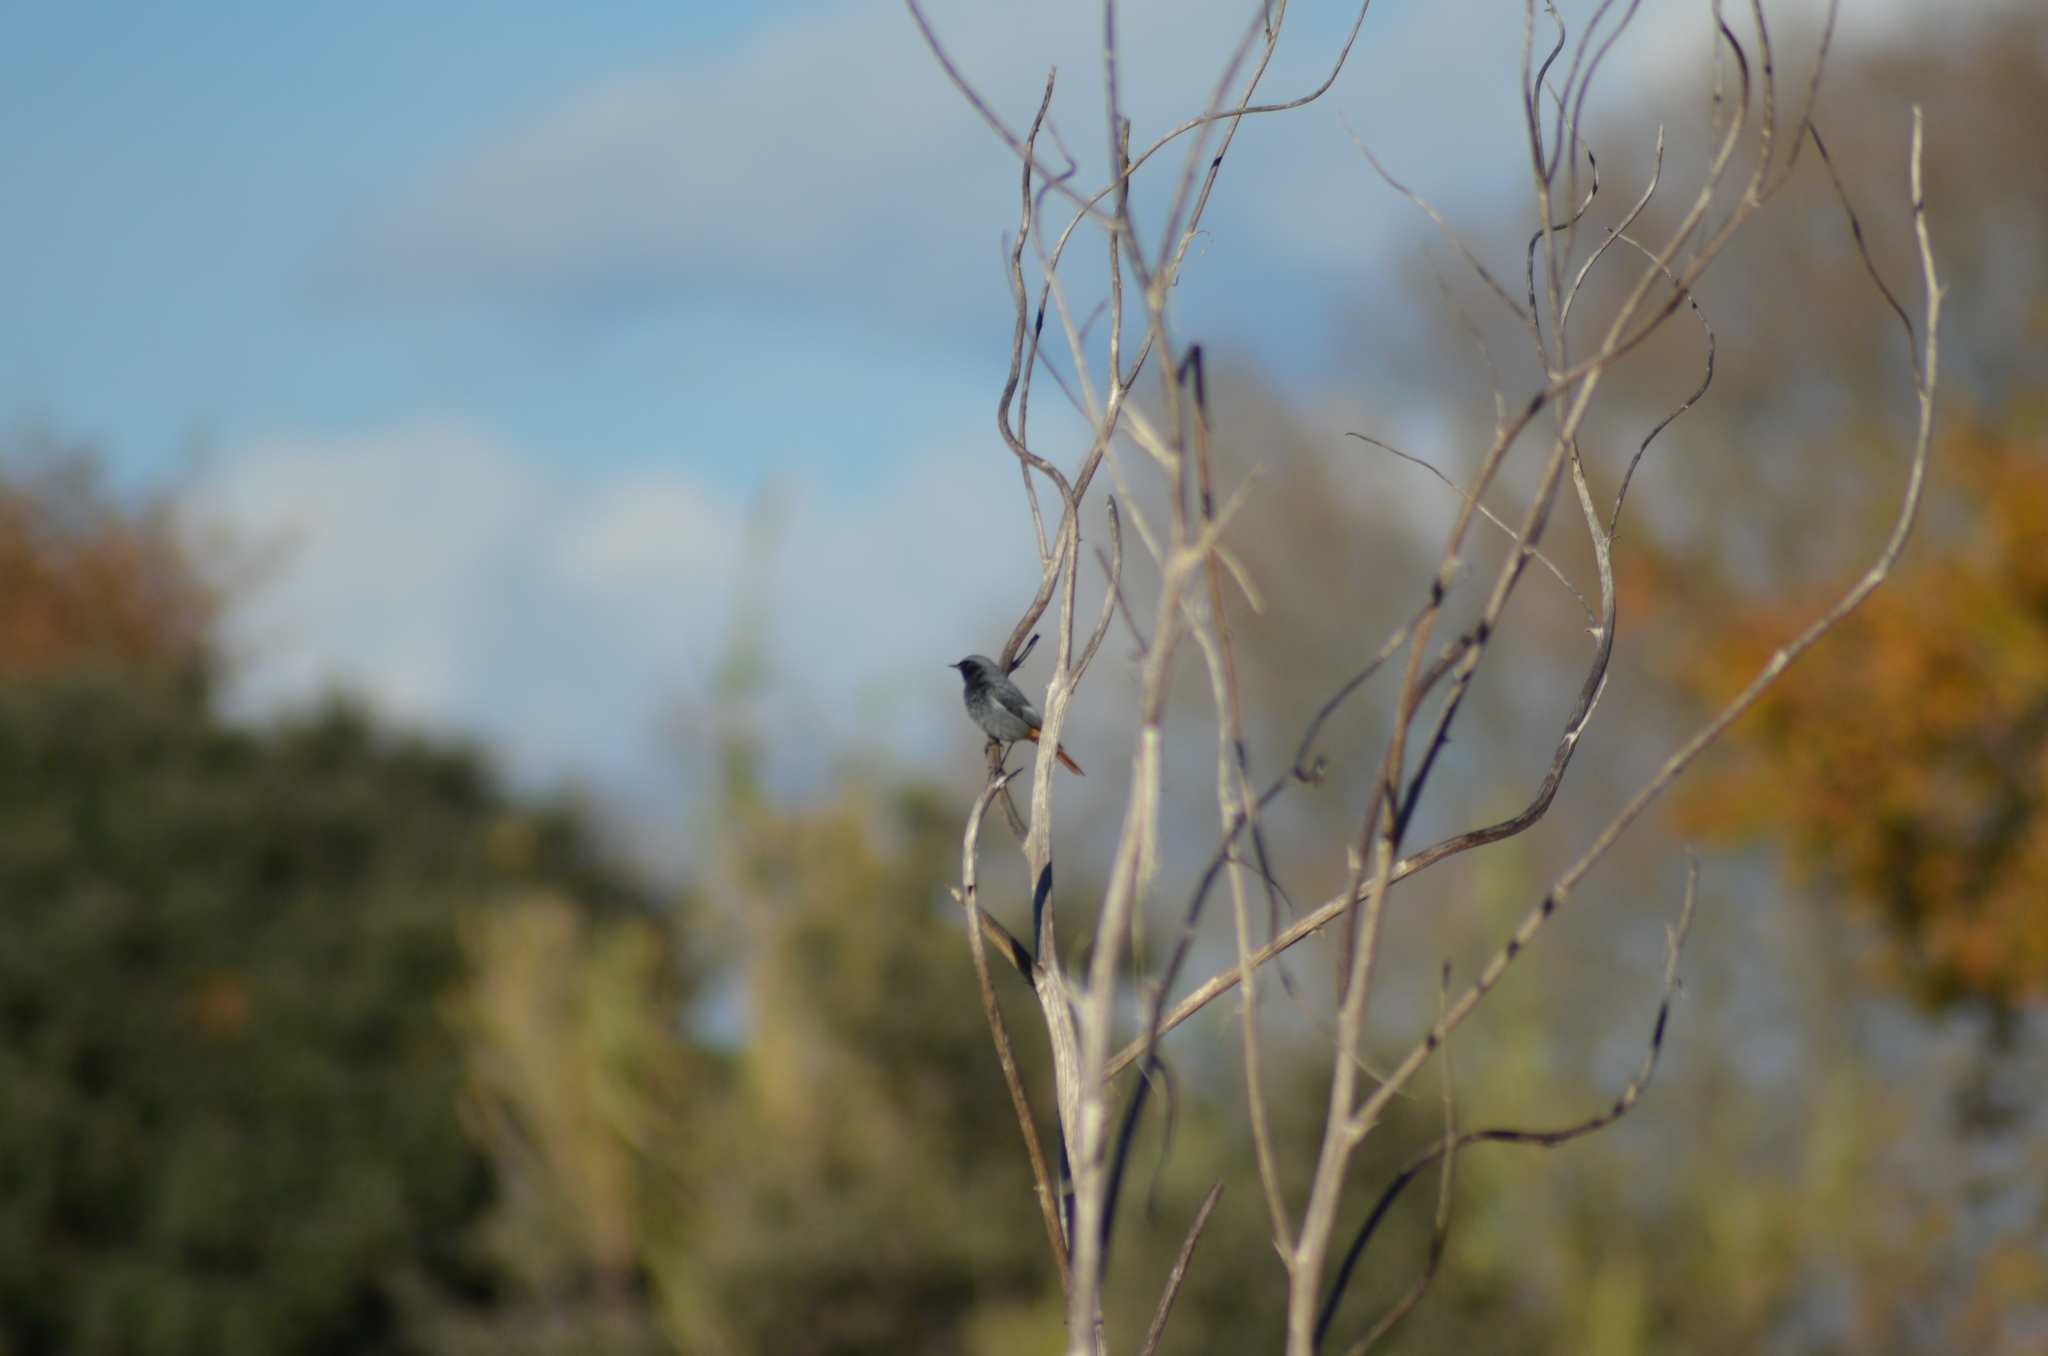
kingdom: Animalia
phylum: Chordata
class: Aves
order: Passeriformes
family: Muscicapidae
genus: Phoenicurus
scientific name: Phoenicurus ochruros
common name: Black redstart
